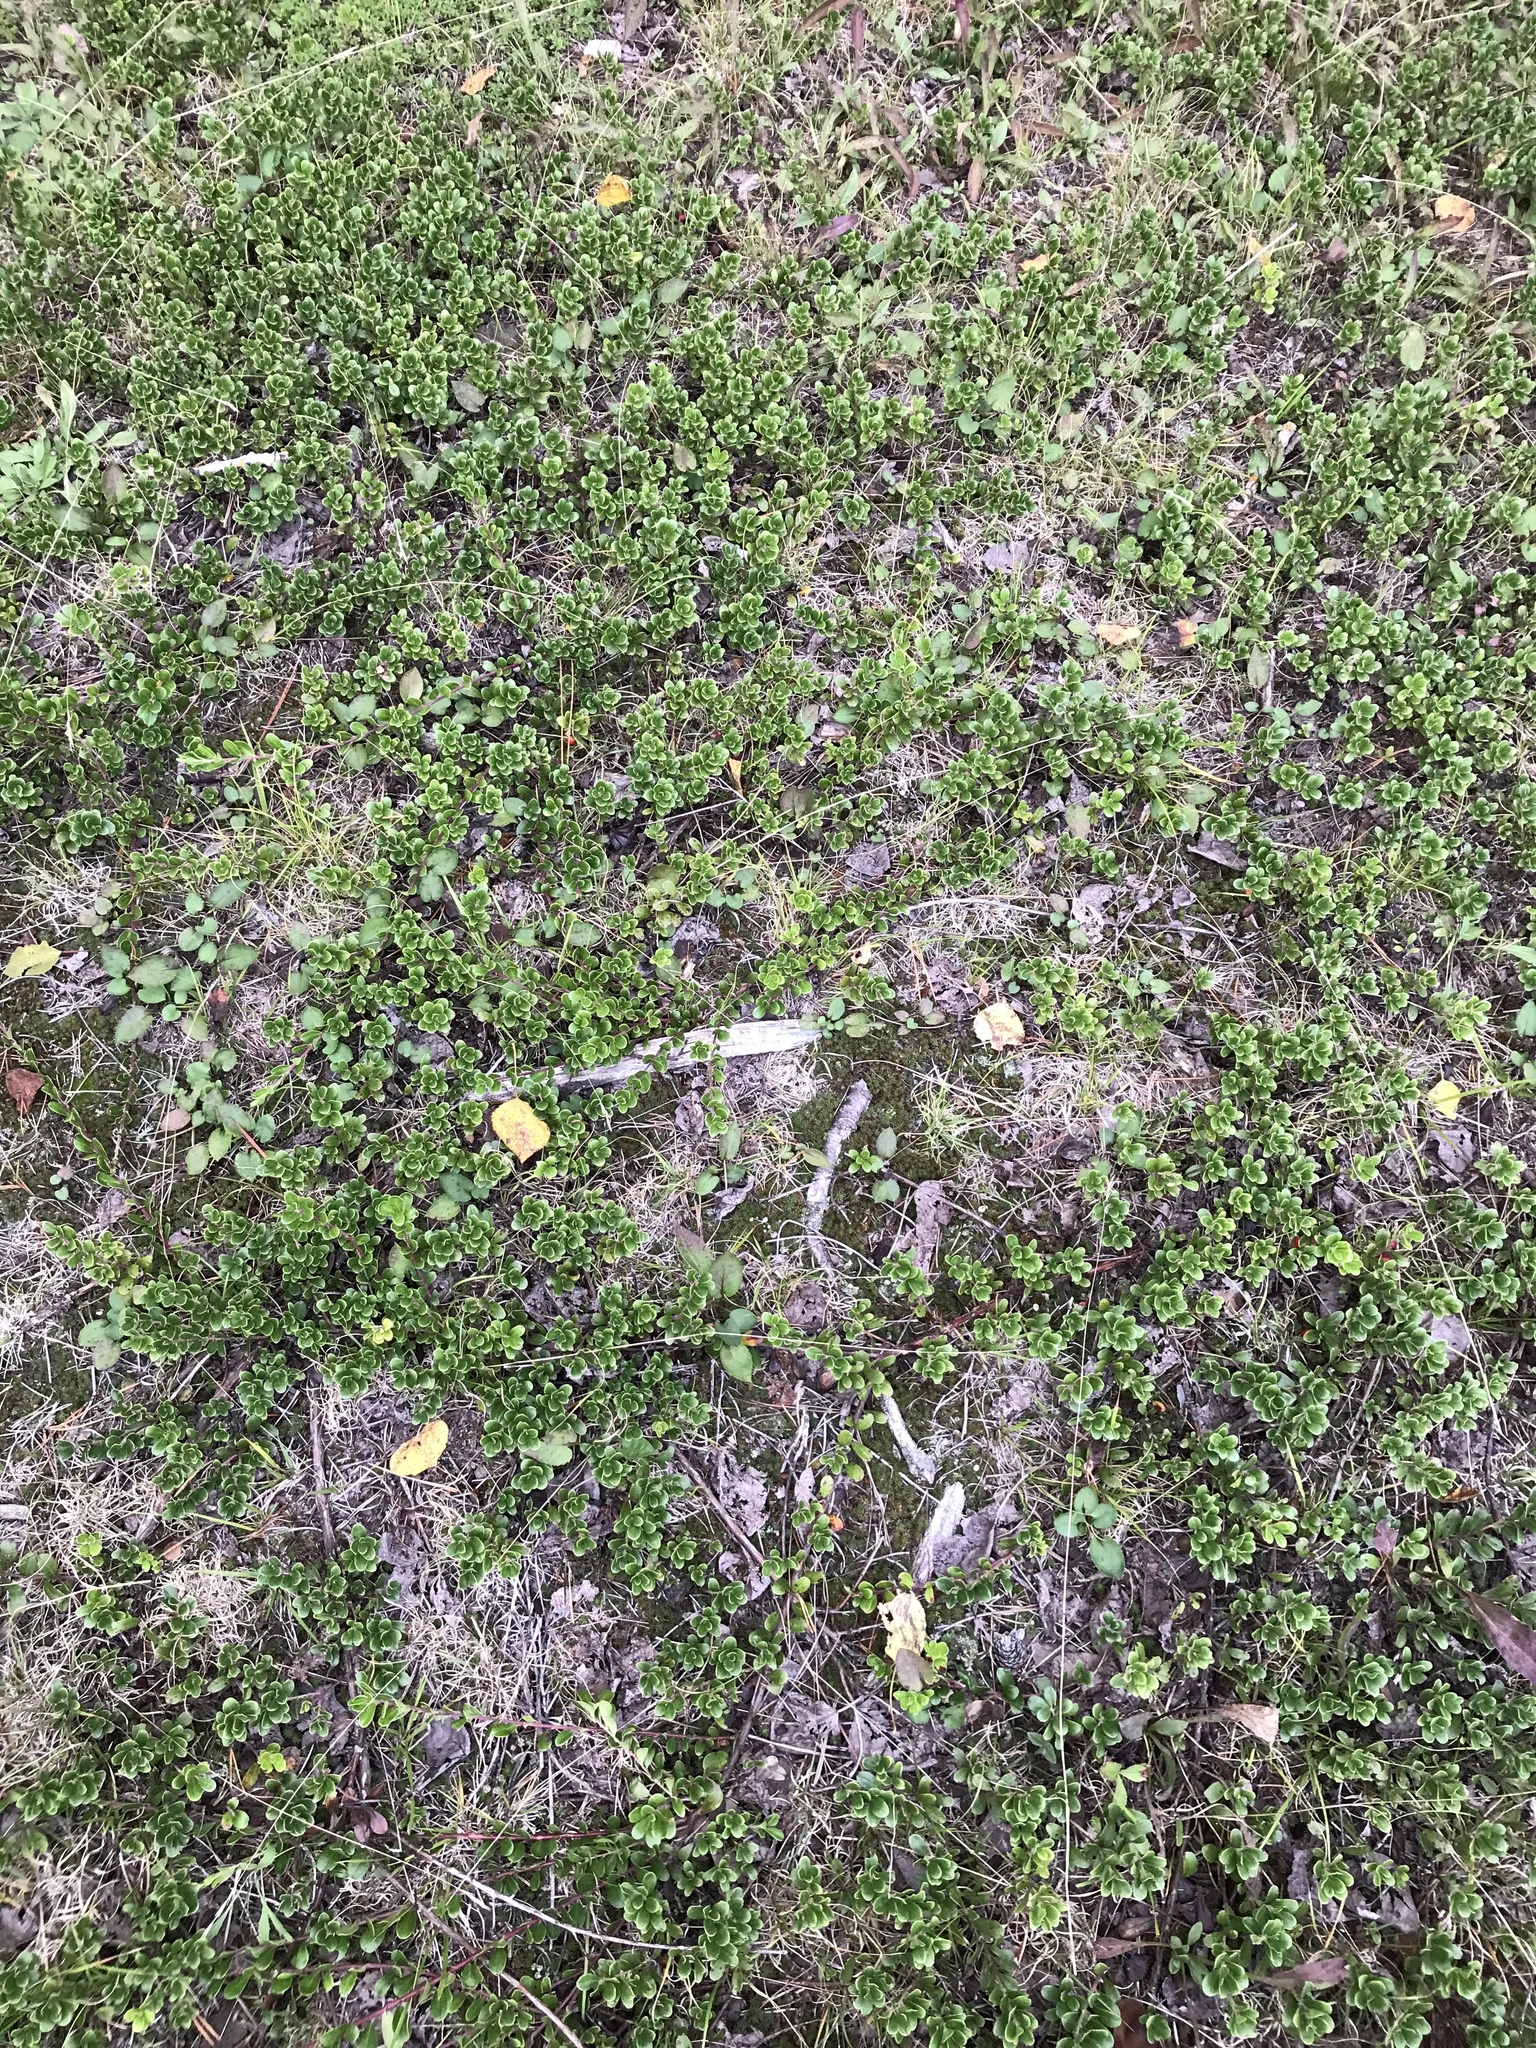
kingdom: Plantae
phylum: Tracheophyta
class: Magnoliopsida
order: Ericales
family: Ericaceae
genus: Arctostaphylos
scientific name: Arctostaphylos uva-ursi
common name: Bearberry
